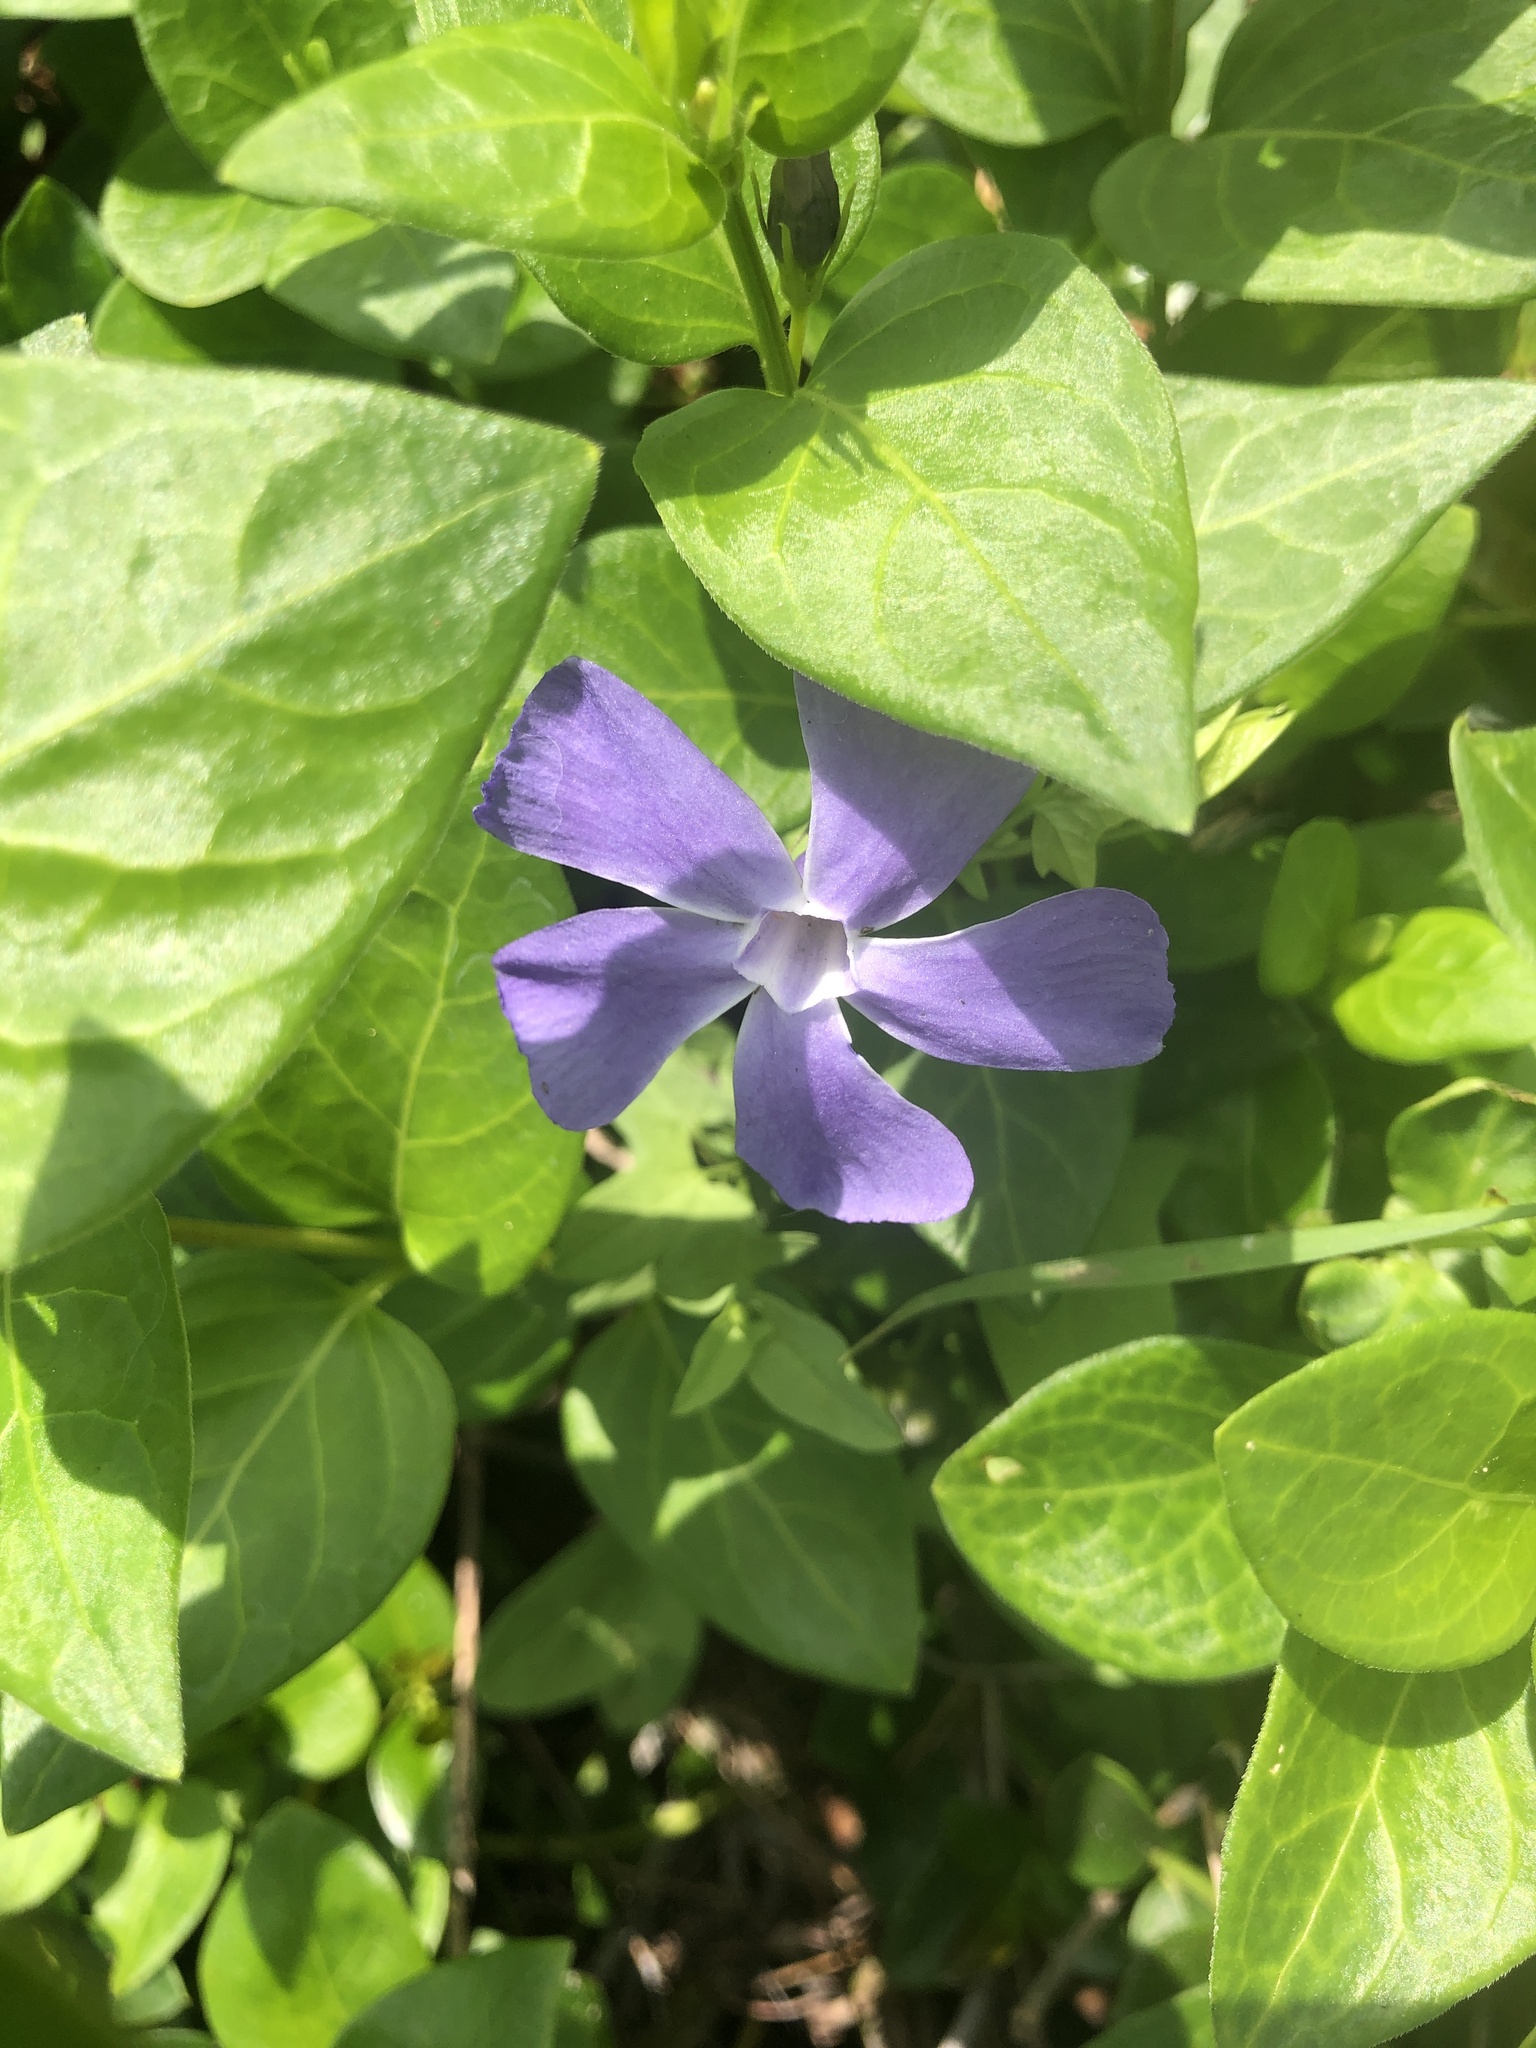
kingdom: Plantae
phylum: Tracheophyta
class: Magnoliopsida
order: Gentianales
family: Apocynaceae
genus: Vinca
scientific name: Vinca major
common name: Greater periwinkle
